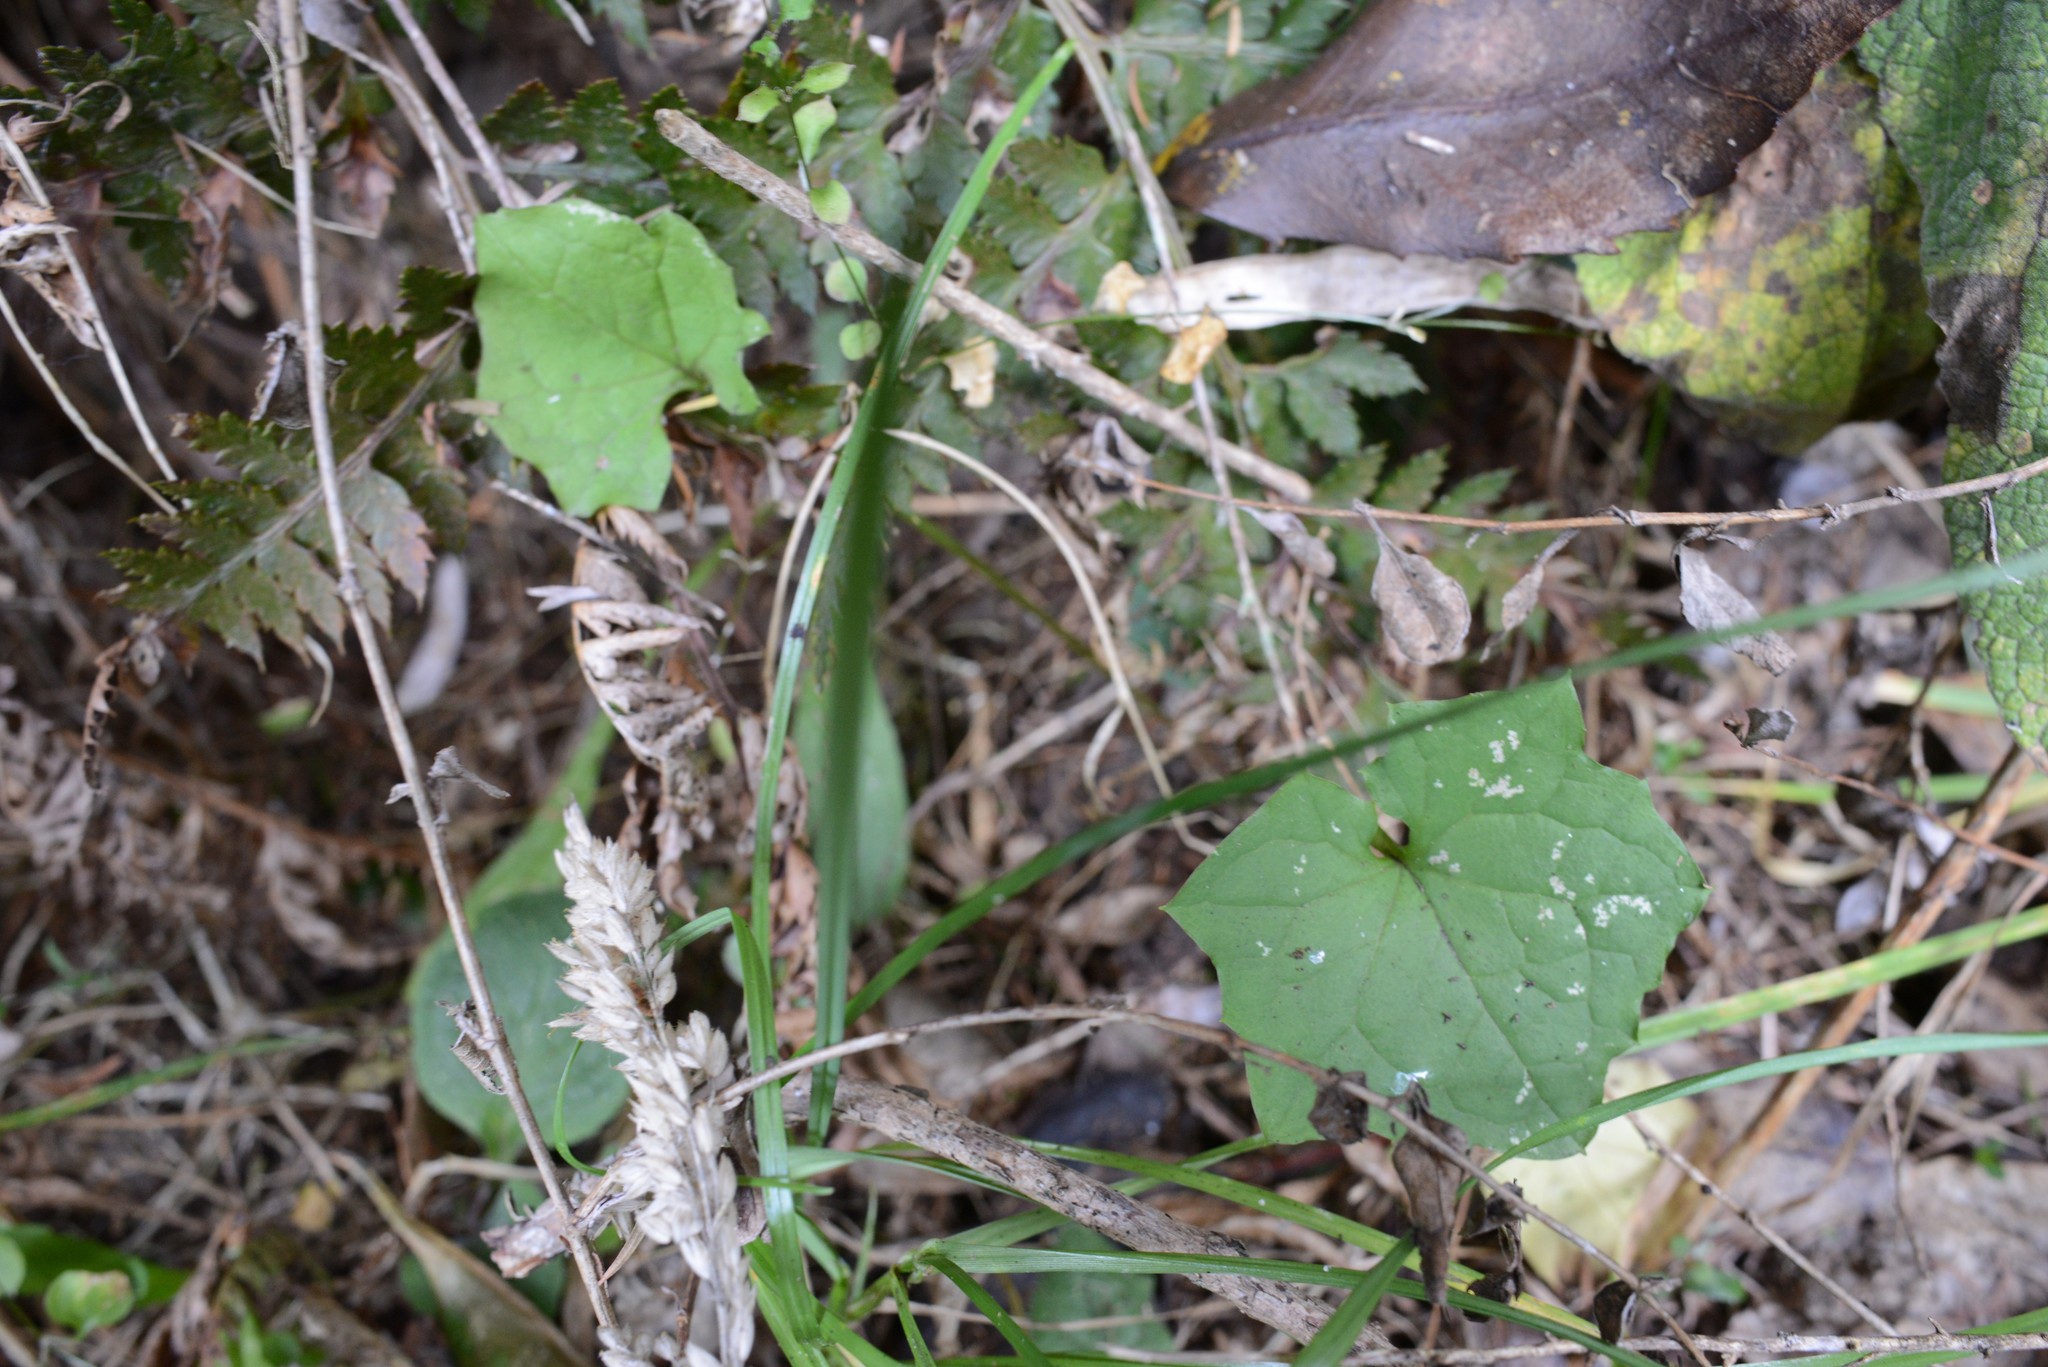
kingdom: Plantae
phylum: Tracheophyta
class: Magnoliopsida
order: Asterales
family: Asteraceae
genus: Mycelis
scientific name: Mycelis muralis
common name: Wall lettuce
